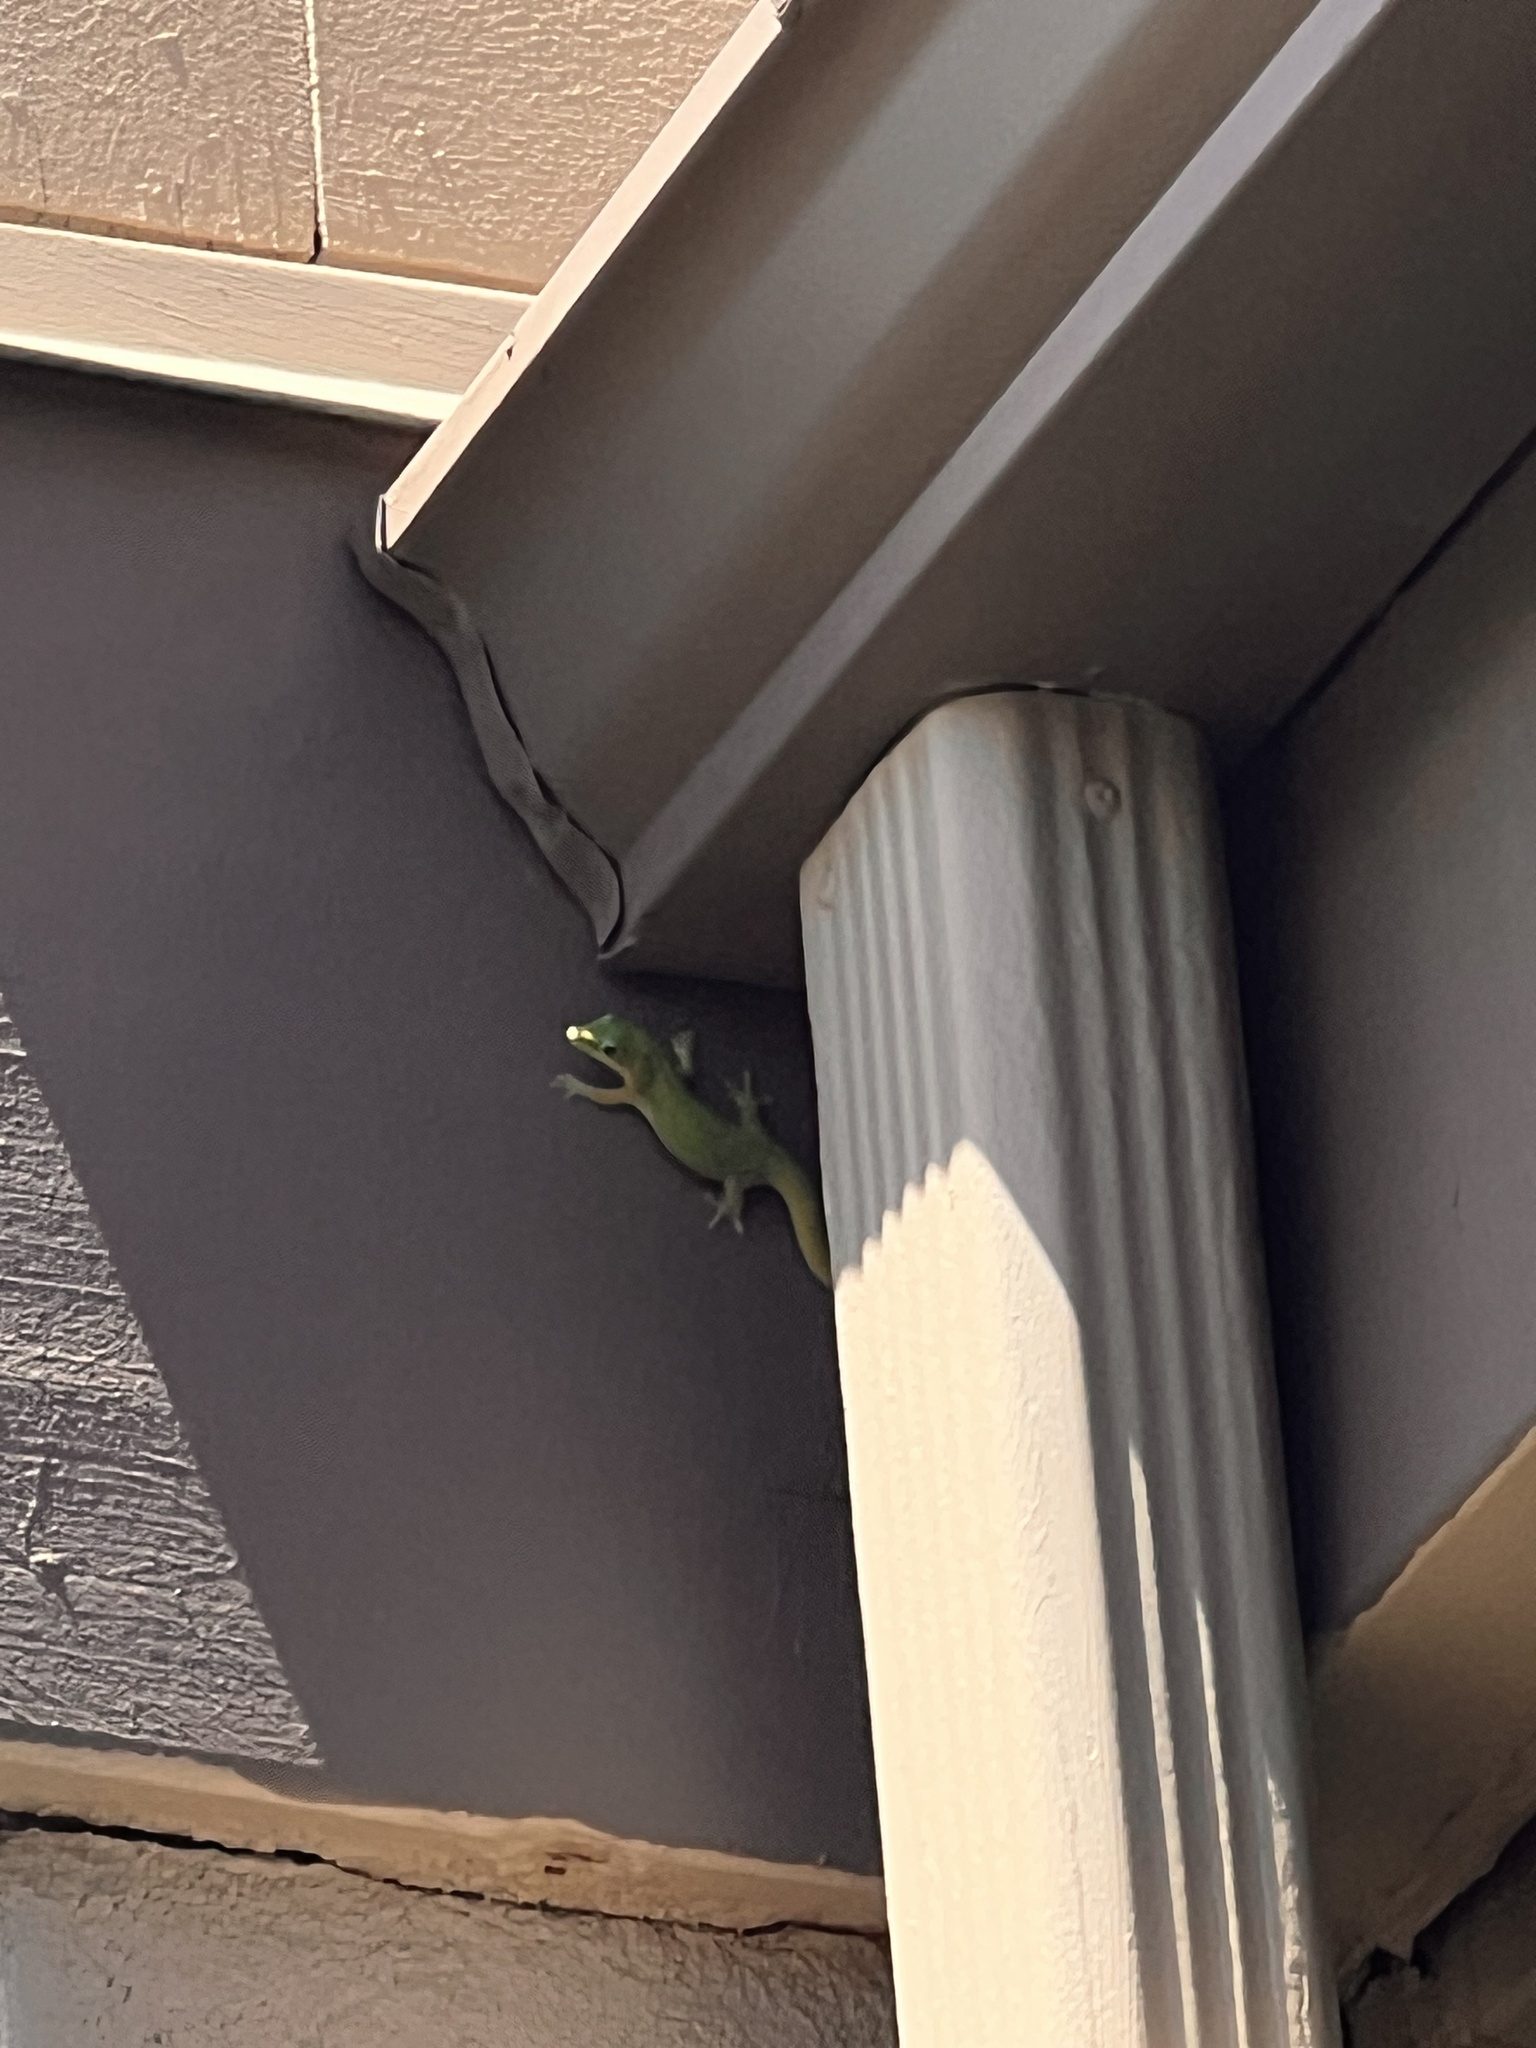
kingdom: Animalia
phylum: Chordata
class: Squamata
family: Gekkonidae
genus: Phelsuma
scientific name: Phelsuma laticauda
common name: Gold dust day gecko
